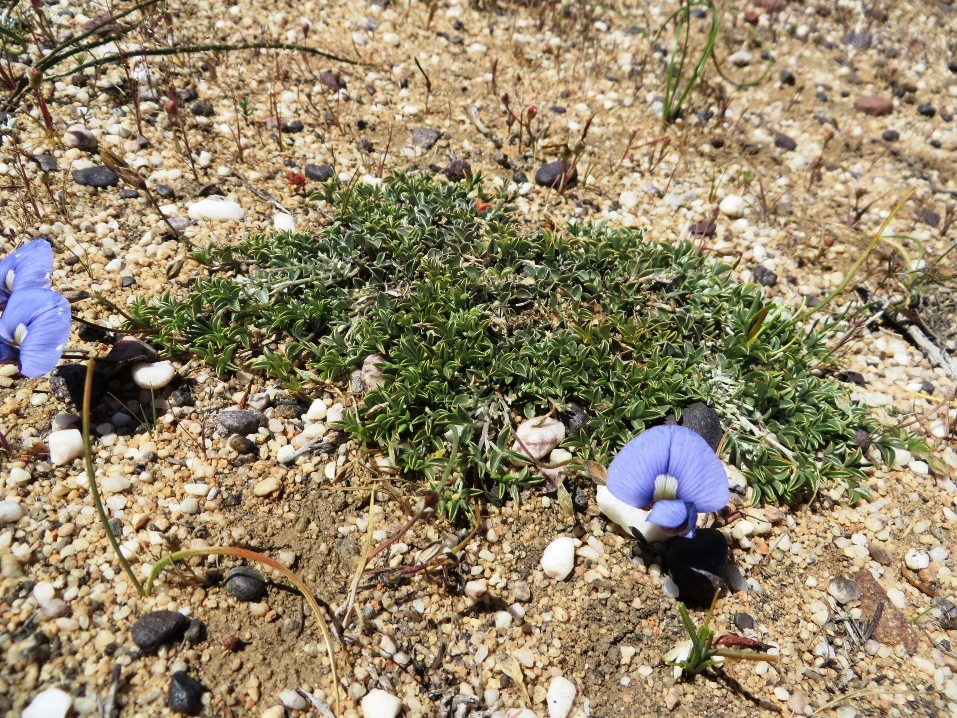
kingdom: Plantae
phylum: Tracheophyta
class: Magnoliopsida
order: Fabales
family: Fabaceae
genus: Lotononis
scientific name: Lotononis argentea
